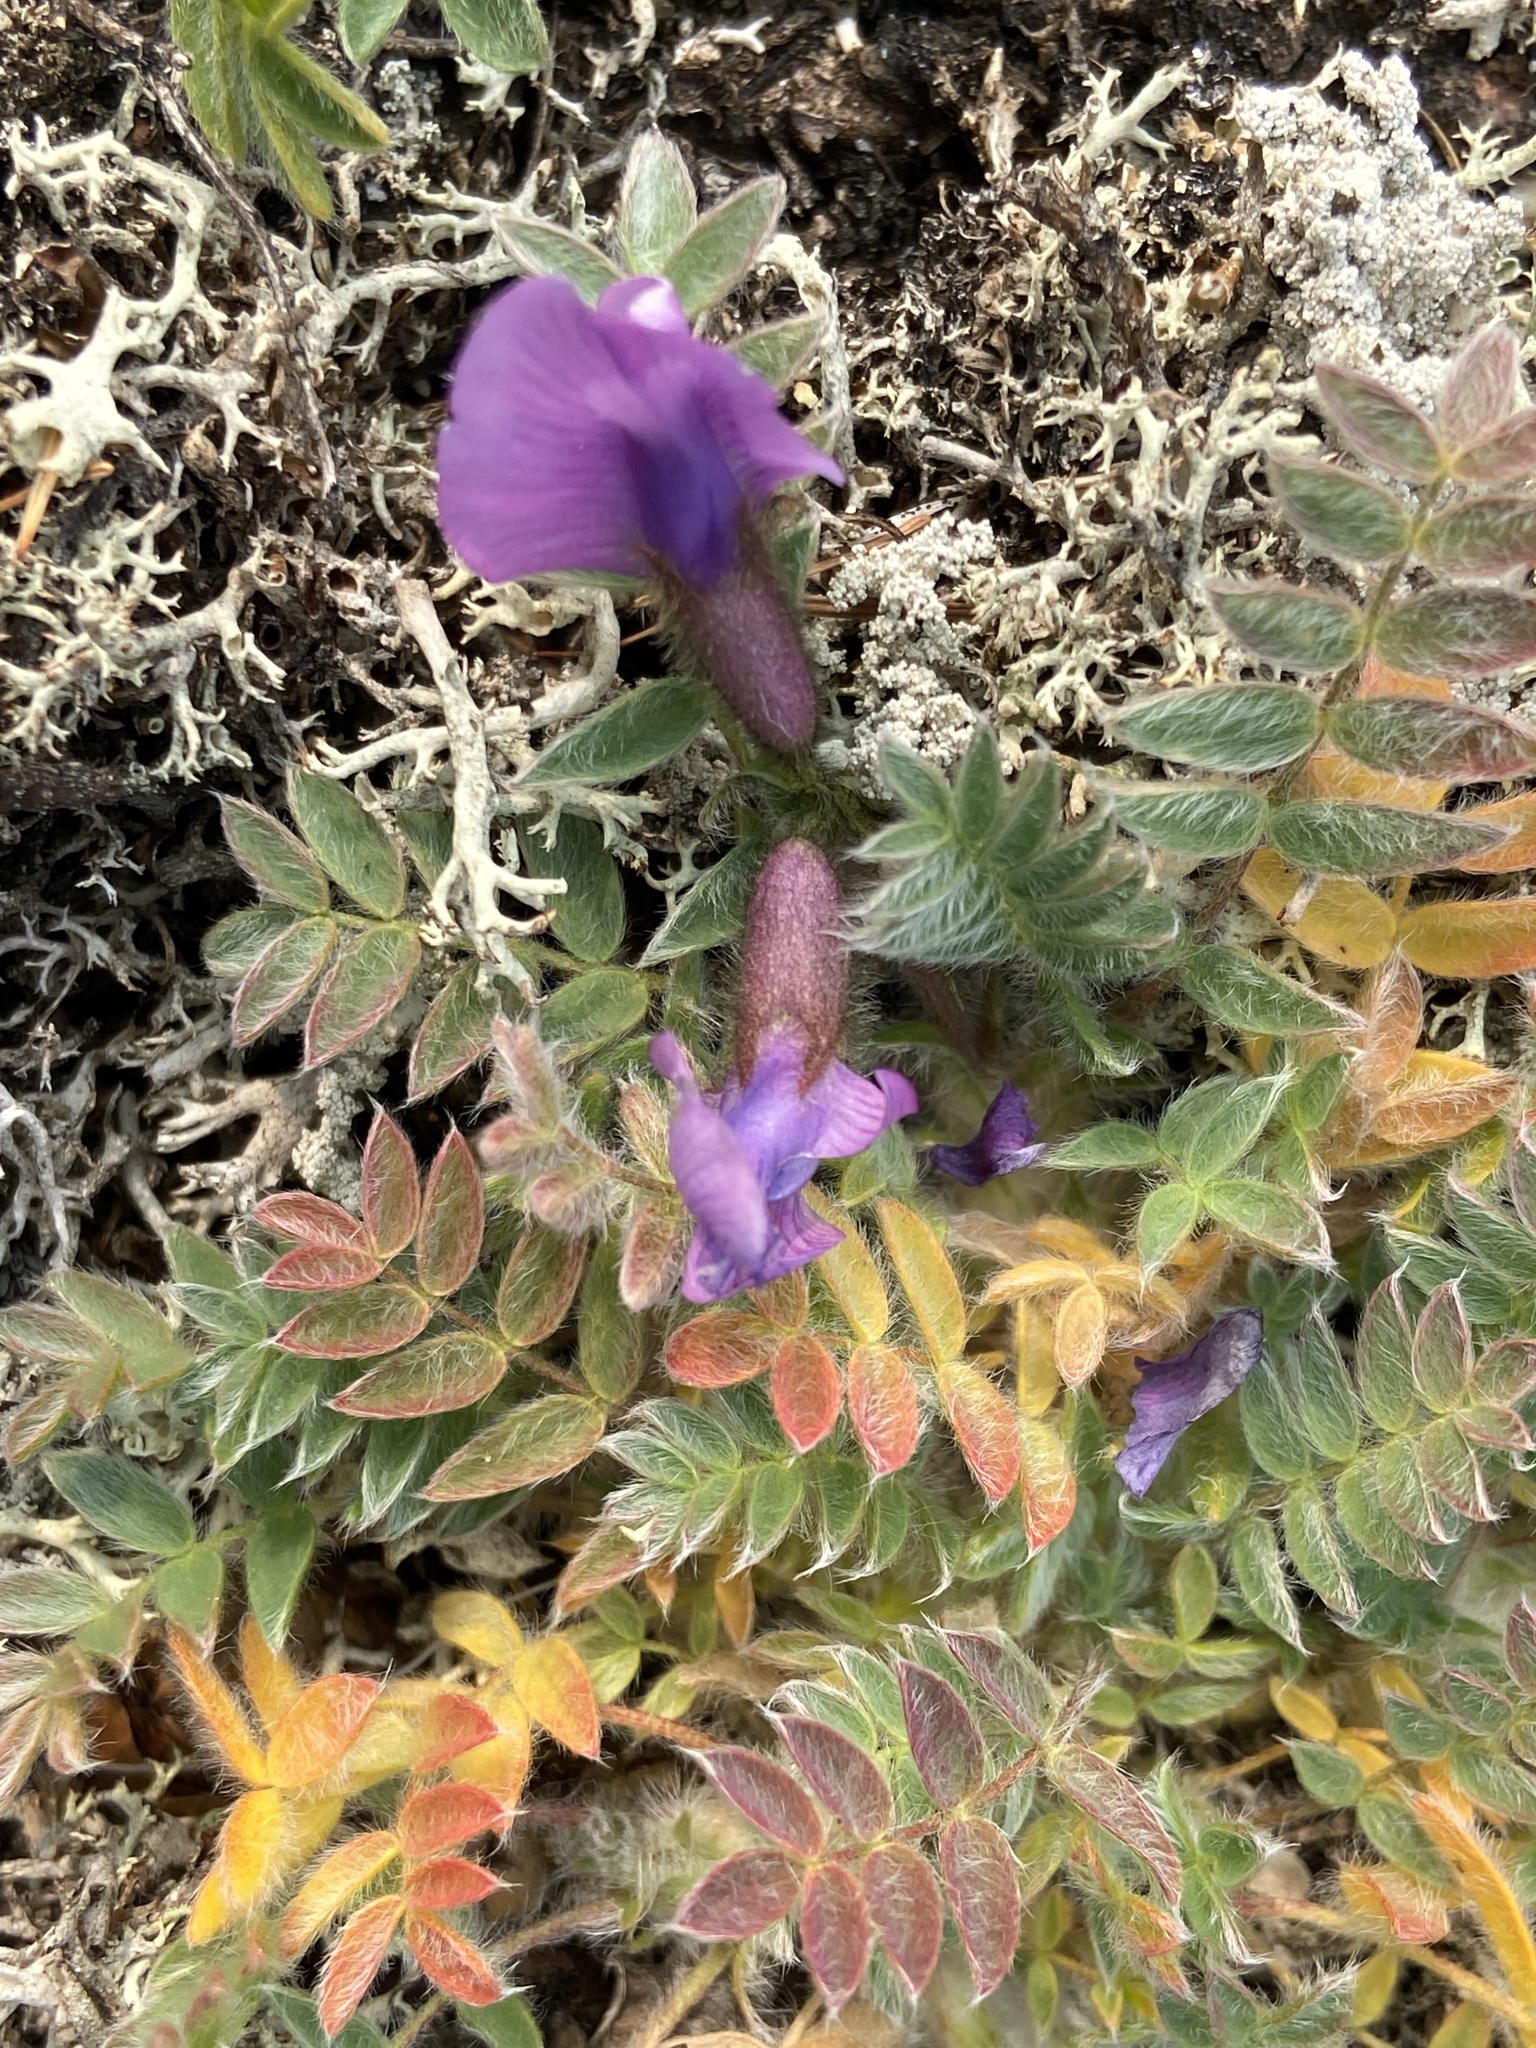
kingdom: Plantae
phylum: Tracheophyta
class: Magnoliopsida
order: Fabales
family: Fabaceae
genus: Oxytropis
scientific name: Oxytropis susumanica
